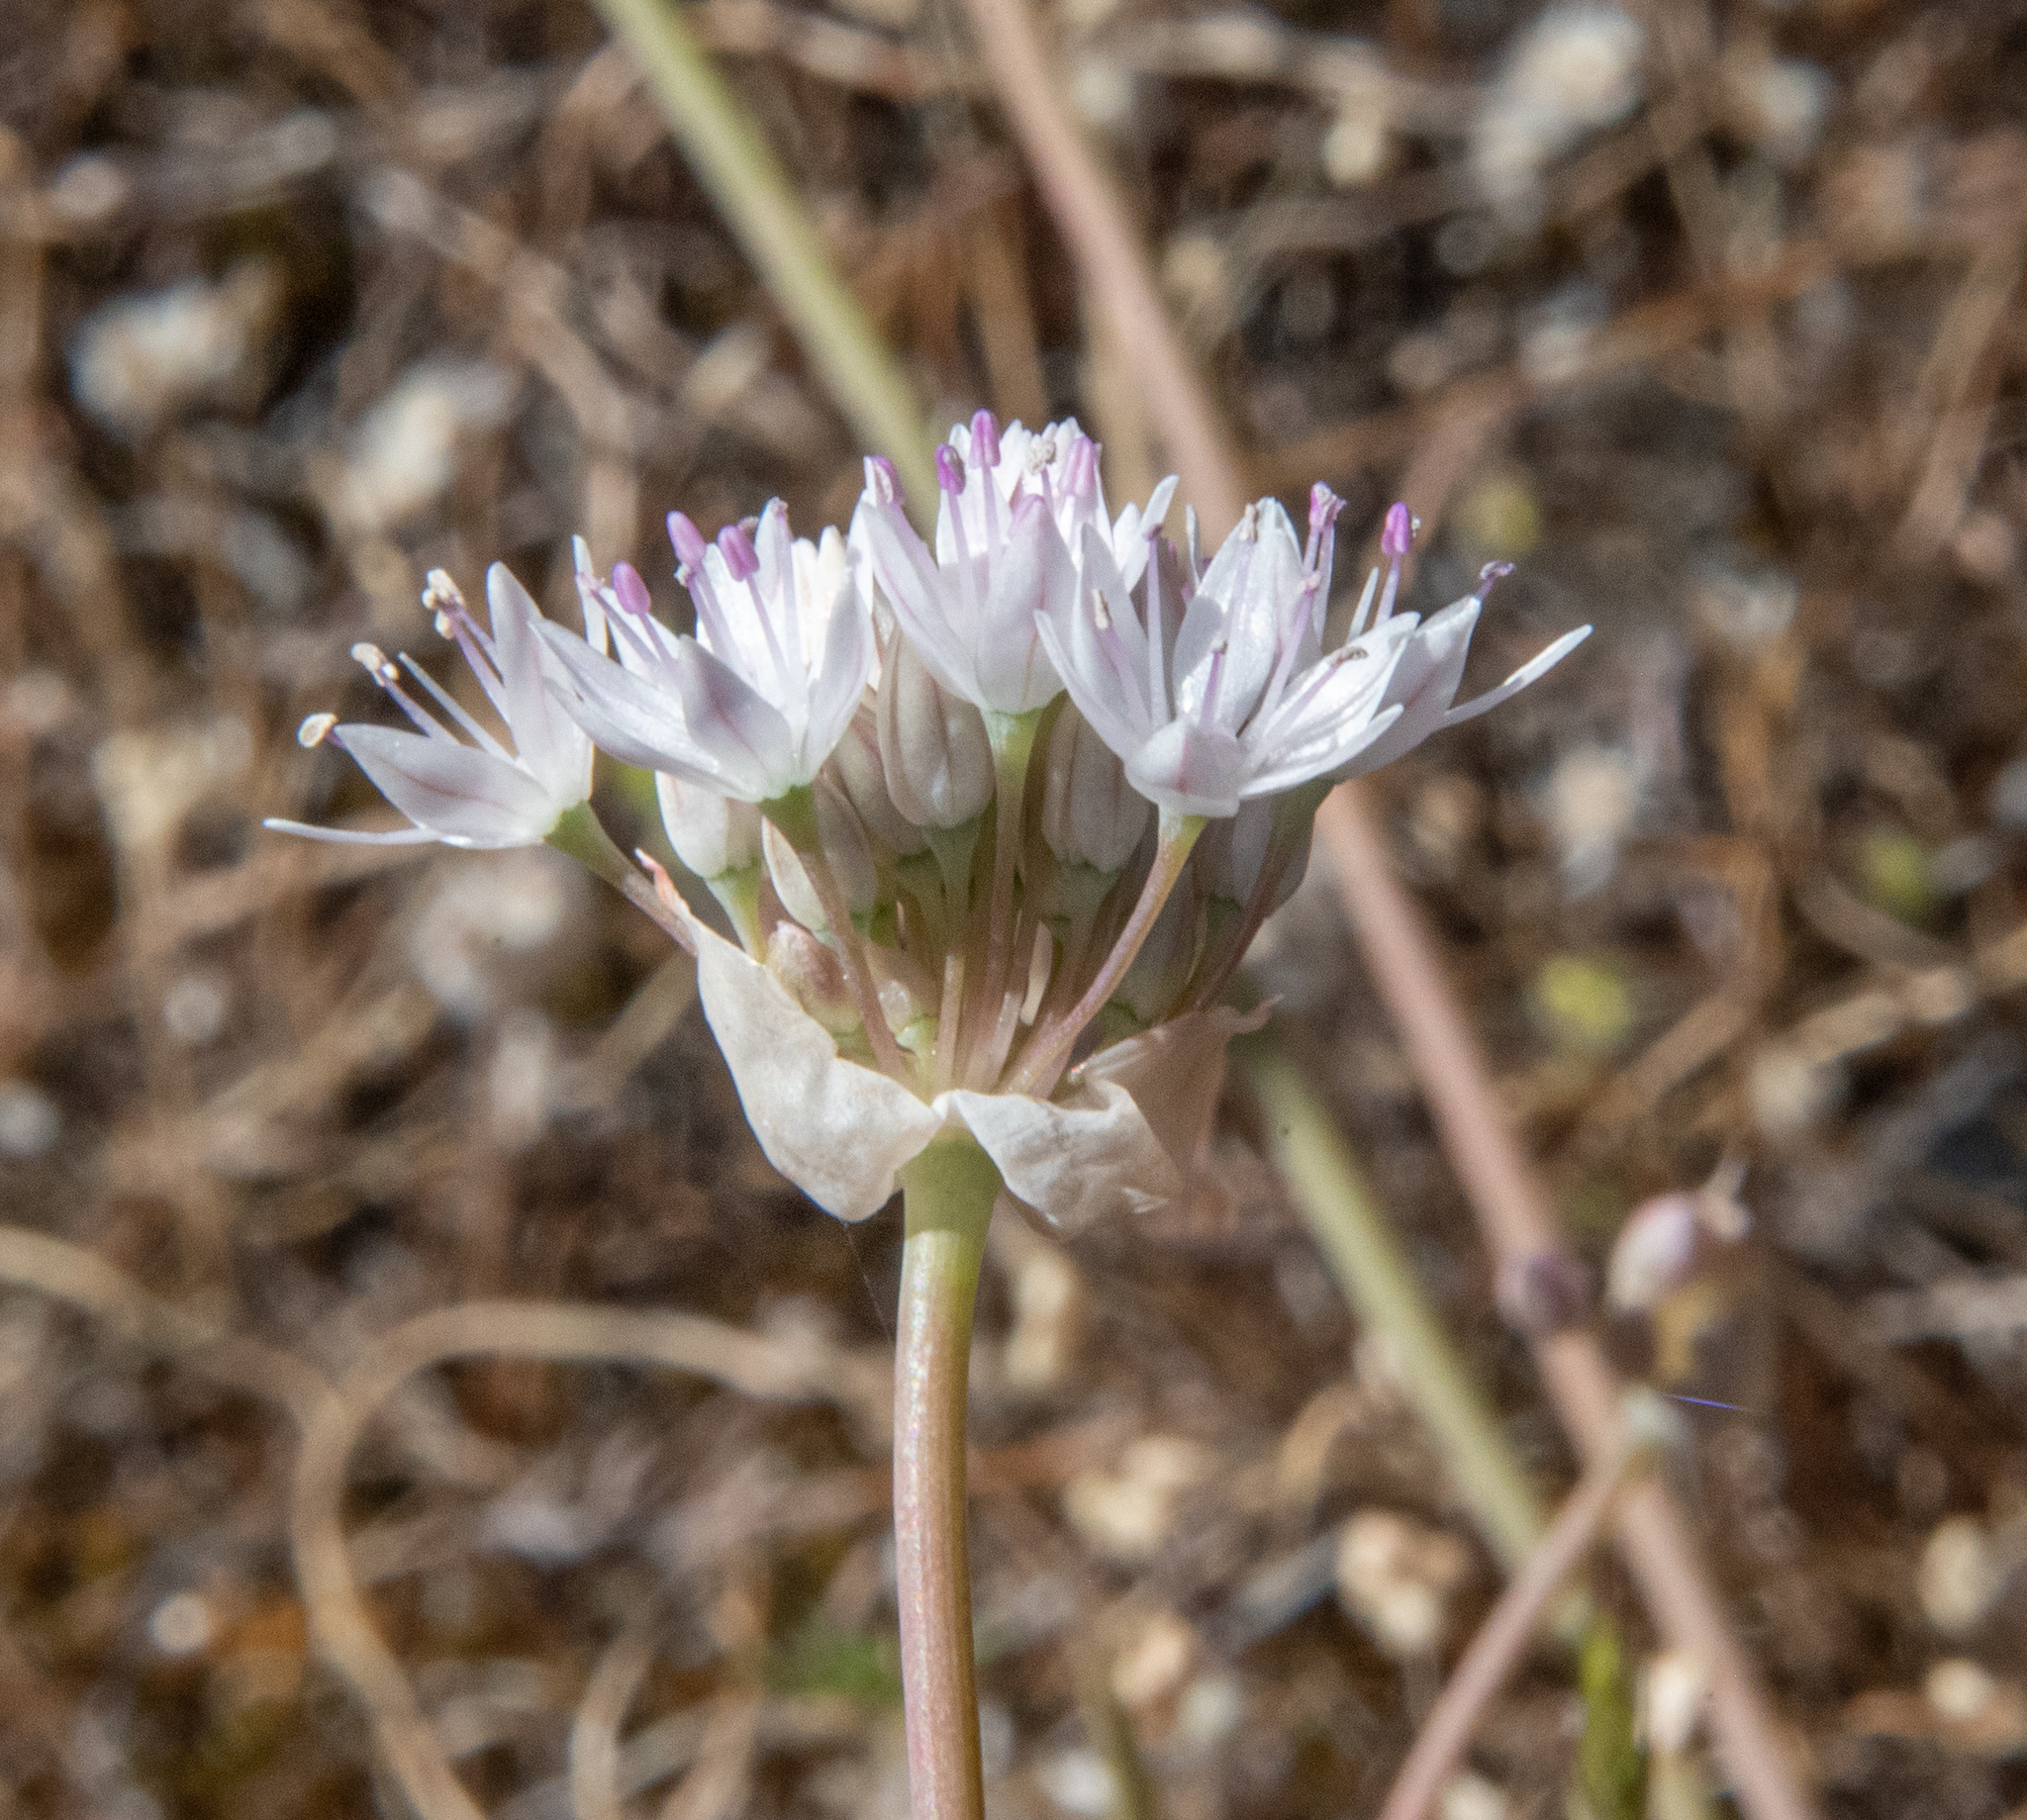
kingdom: Plantae
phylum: Tracheophyta
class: Liliopsida
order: Asparagales
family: Amaryllidaceae
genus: Allium
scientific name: Allium amplectens
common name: Narrow-leaved onion
